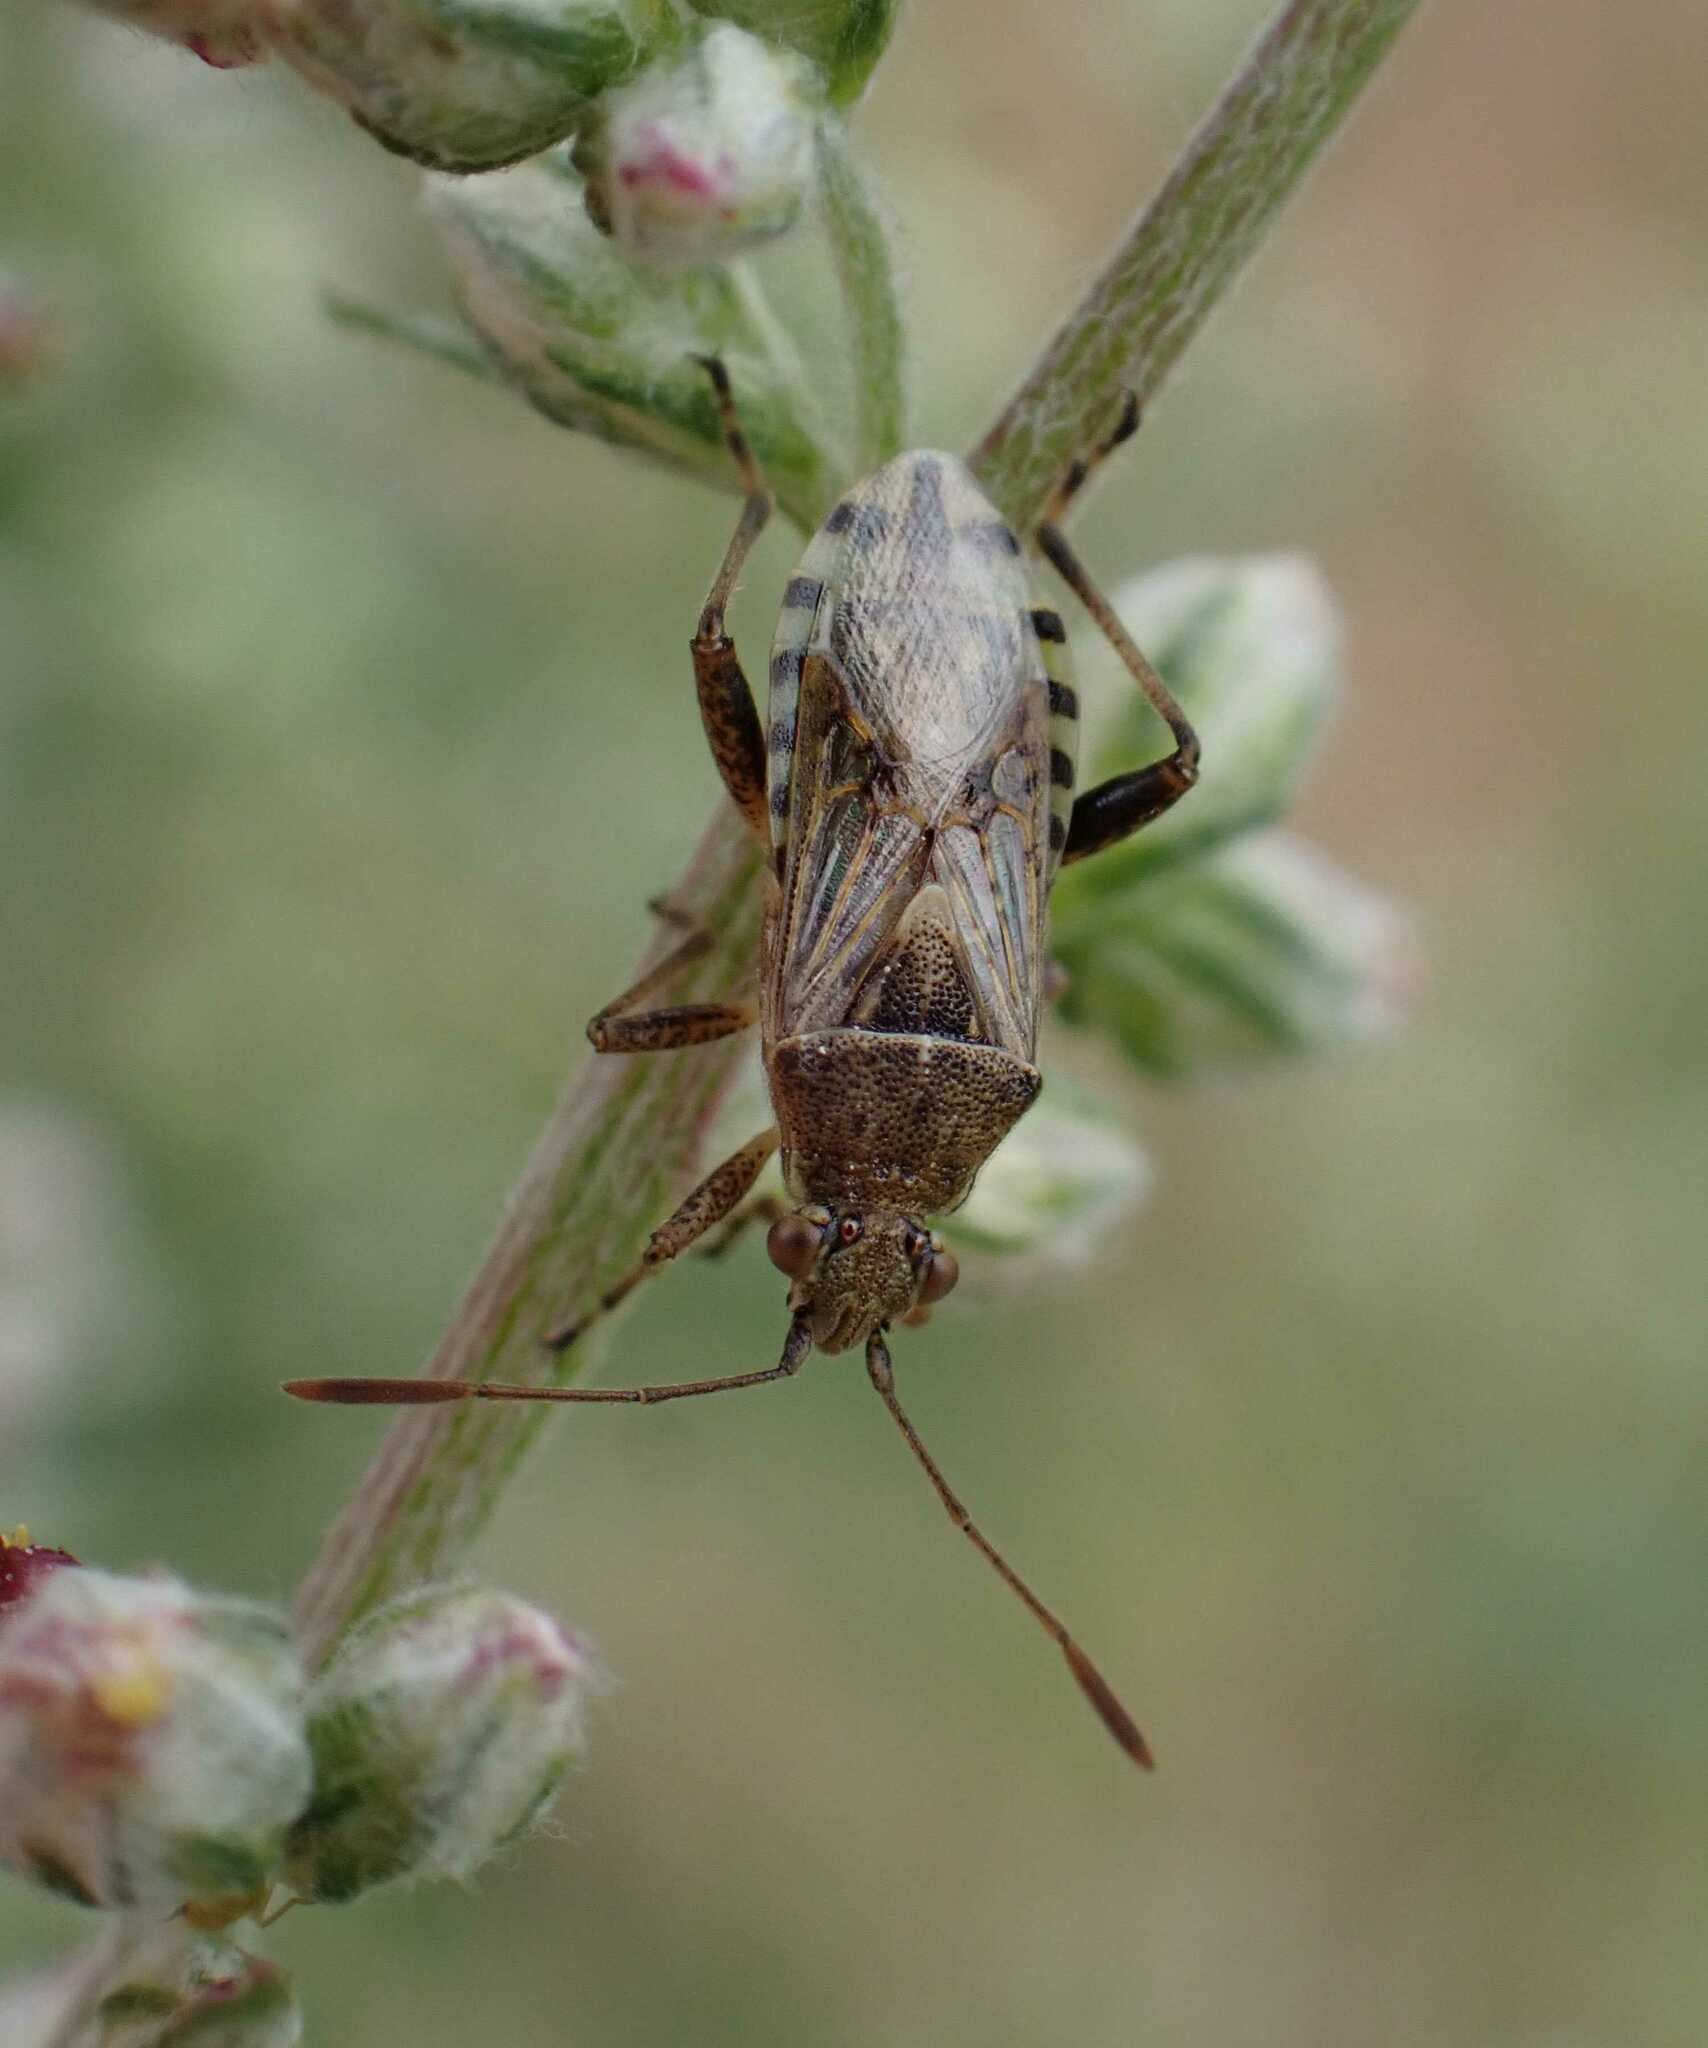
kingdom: Animalia
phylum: Arthropoda
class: Insecta
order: Hemiptera
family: Rhopalidae
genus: Stictopleurus
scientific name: Stictopleurus punctatonervosus
